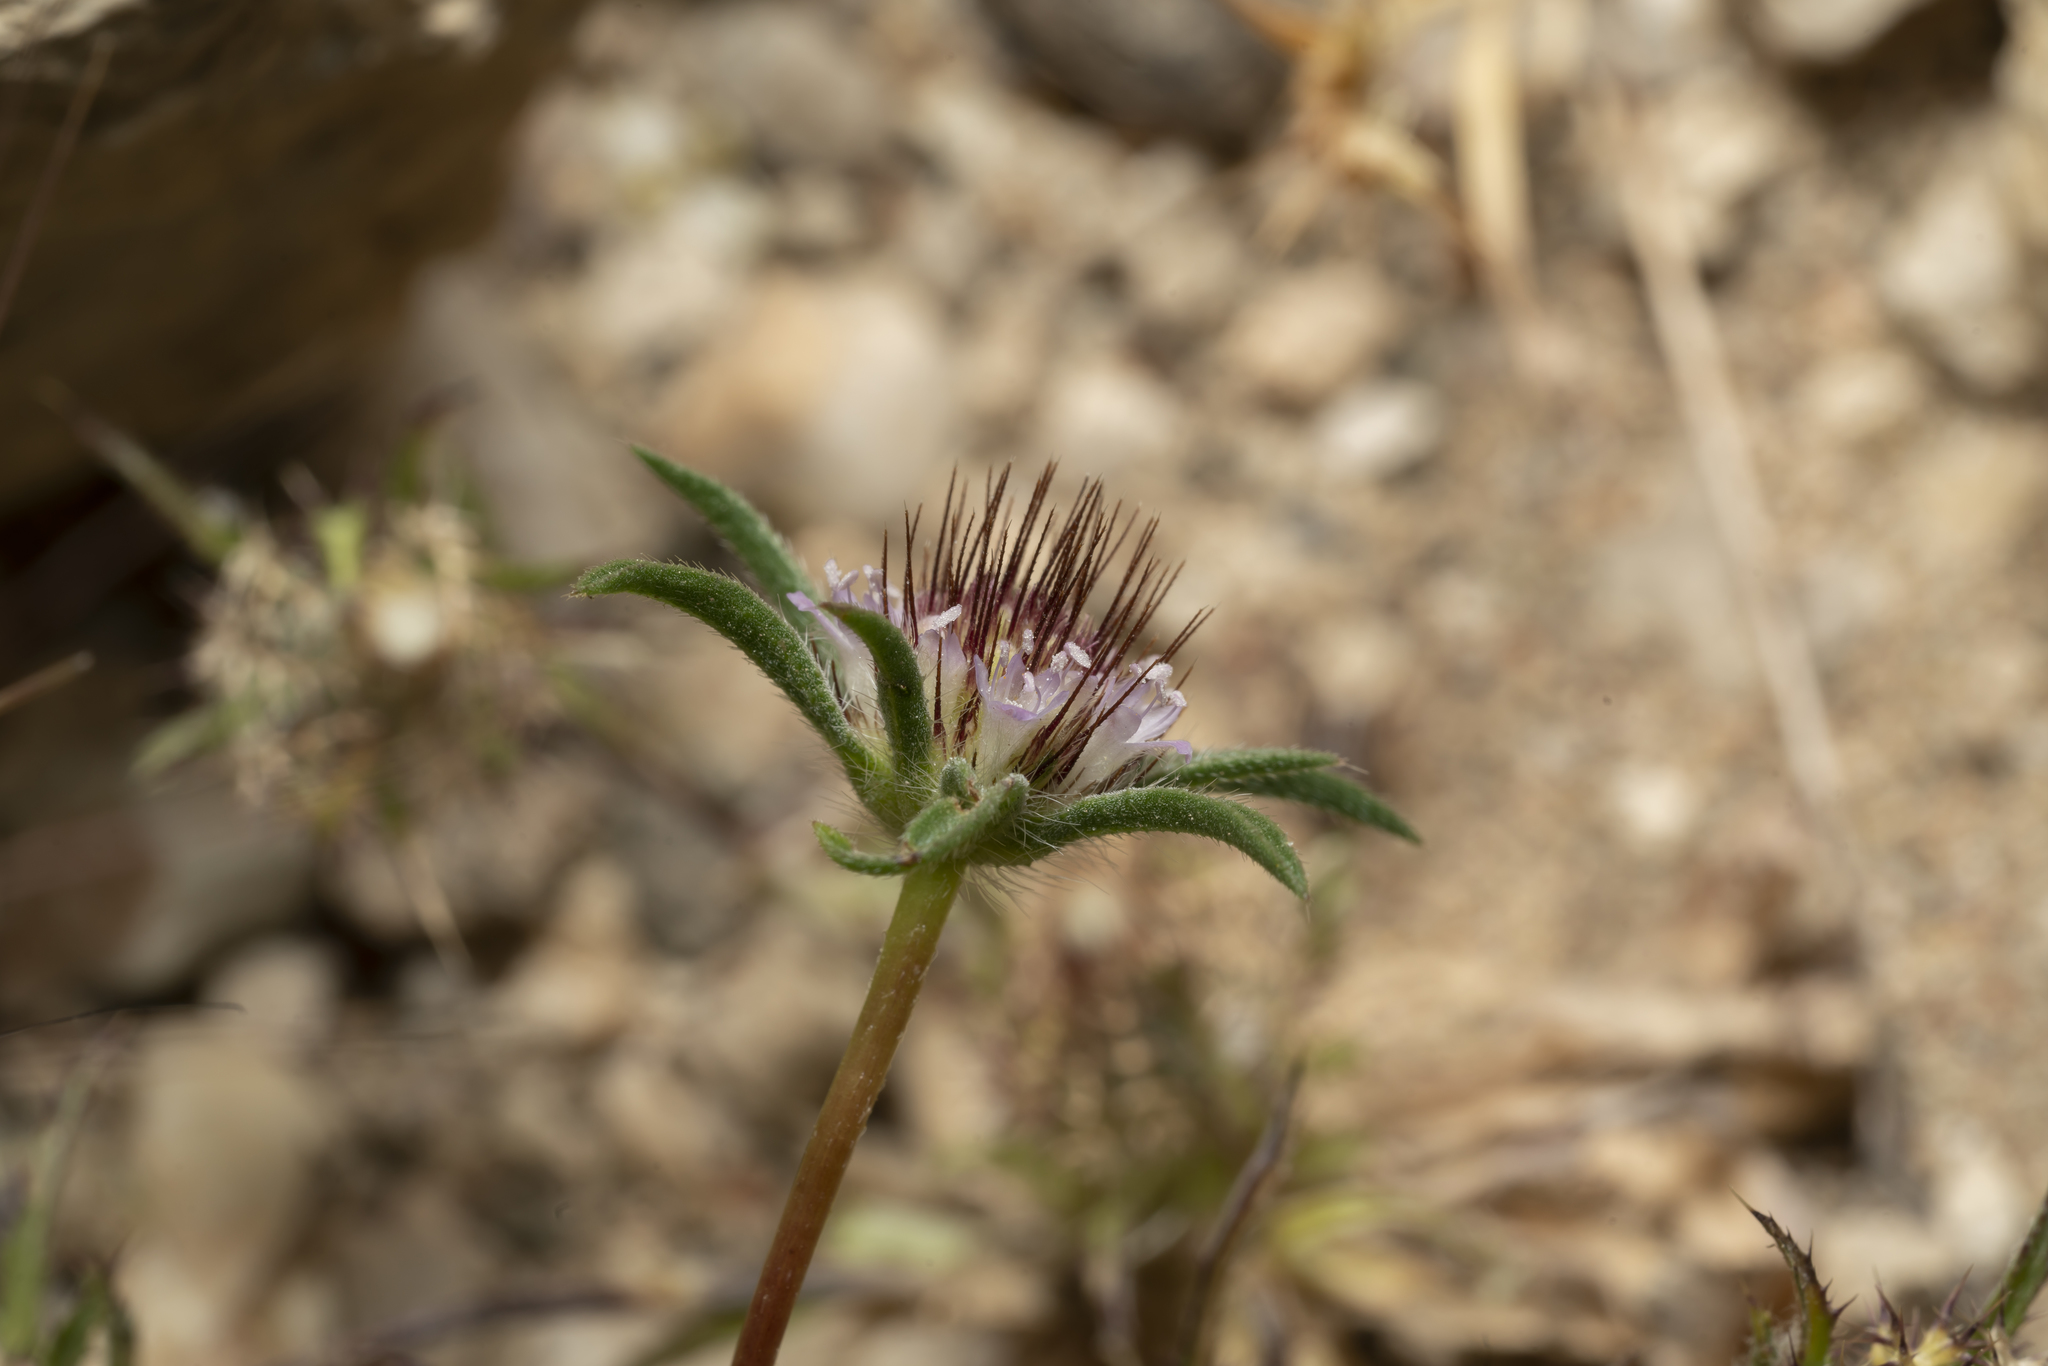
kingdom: Plantae
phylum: Tracheophyta
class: Magnoliopsida
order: Dipsacales
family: Caprifoliaceae
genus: Lomelosia
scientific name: Lomelosia divaricata
